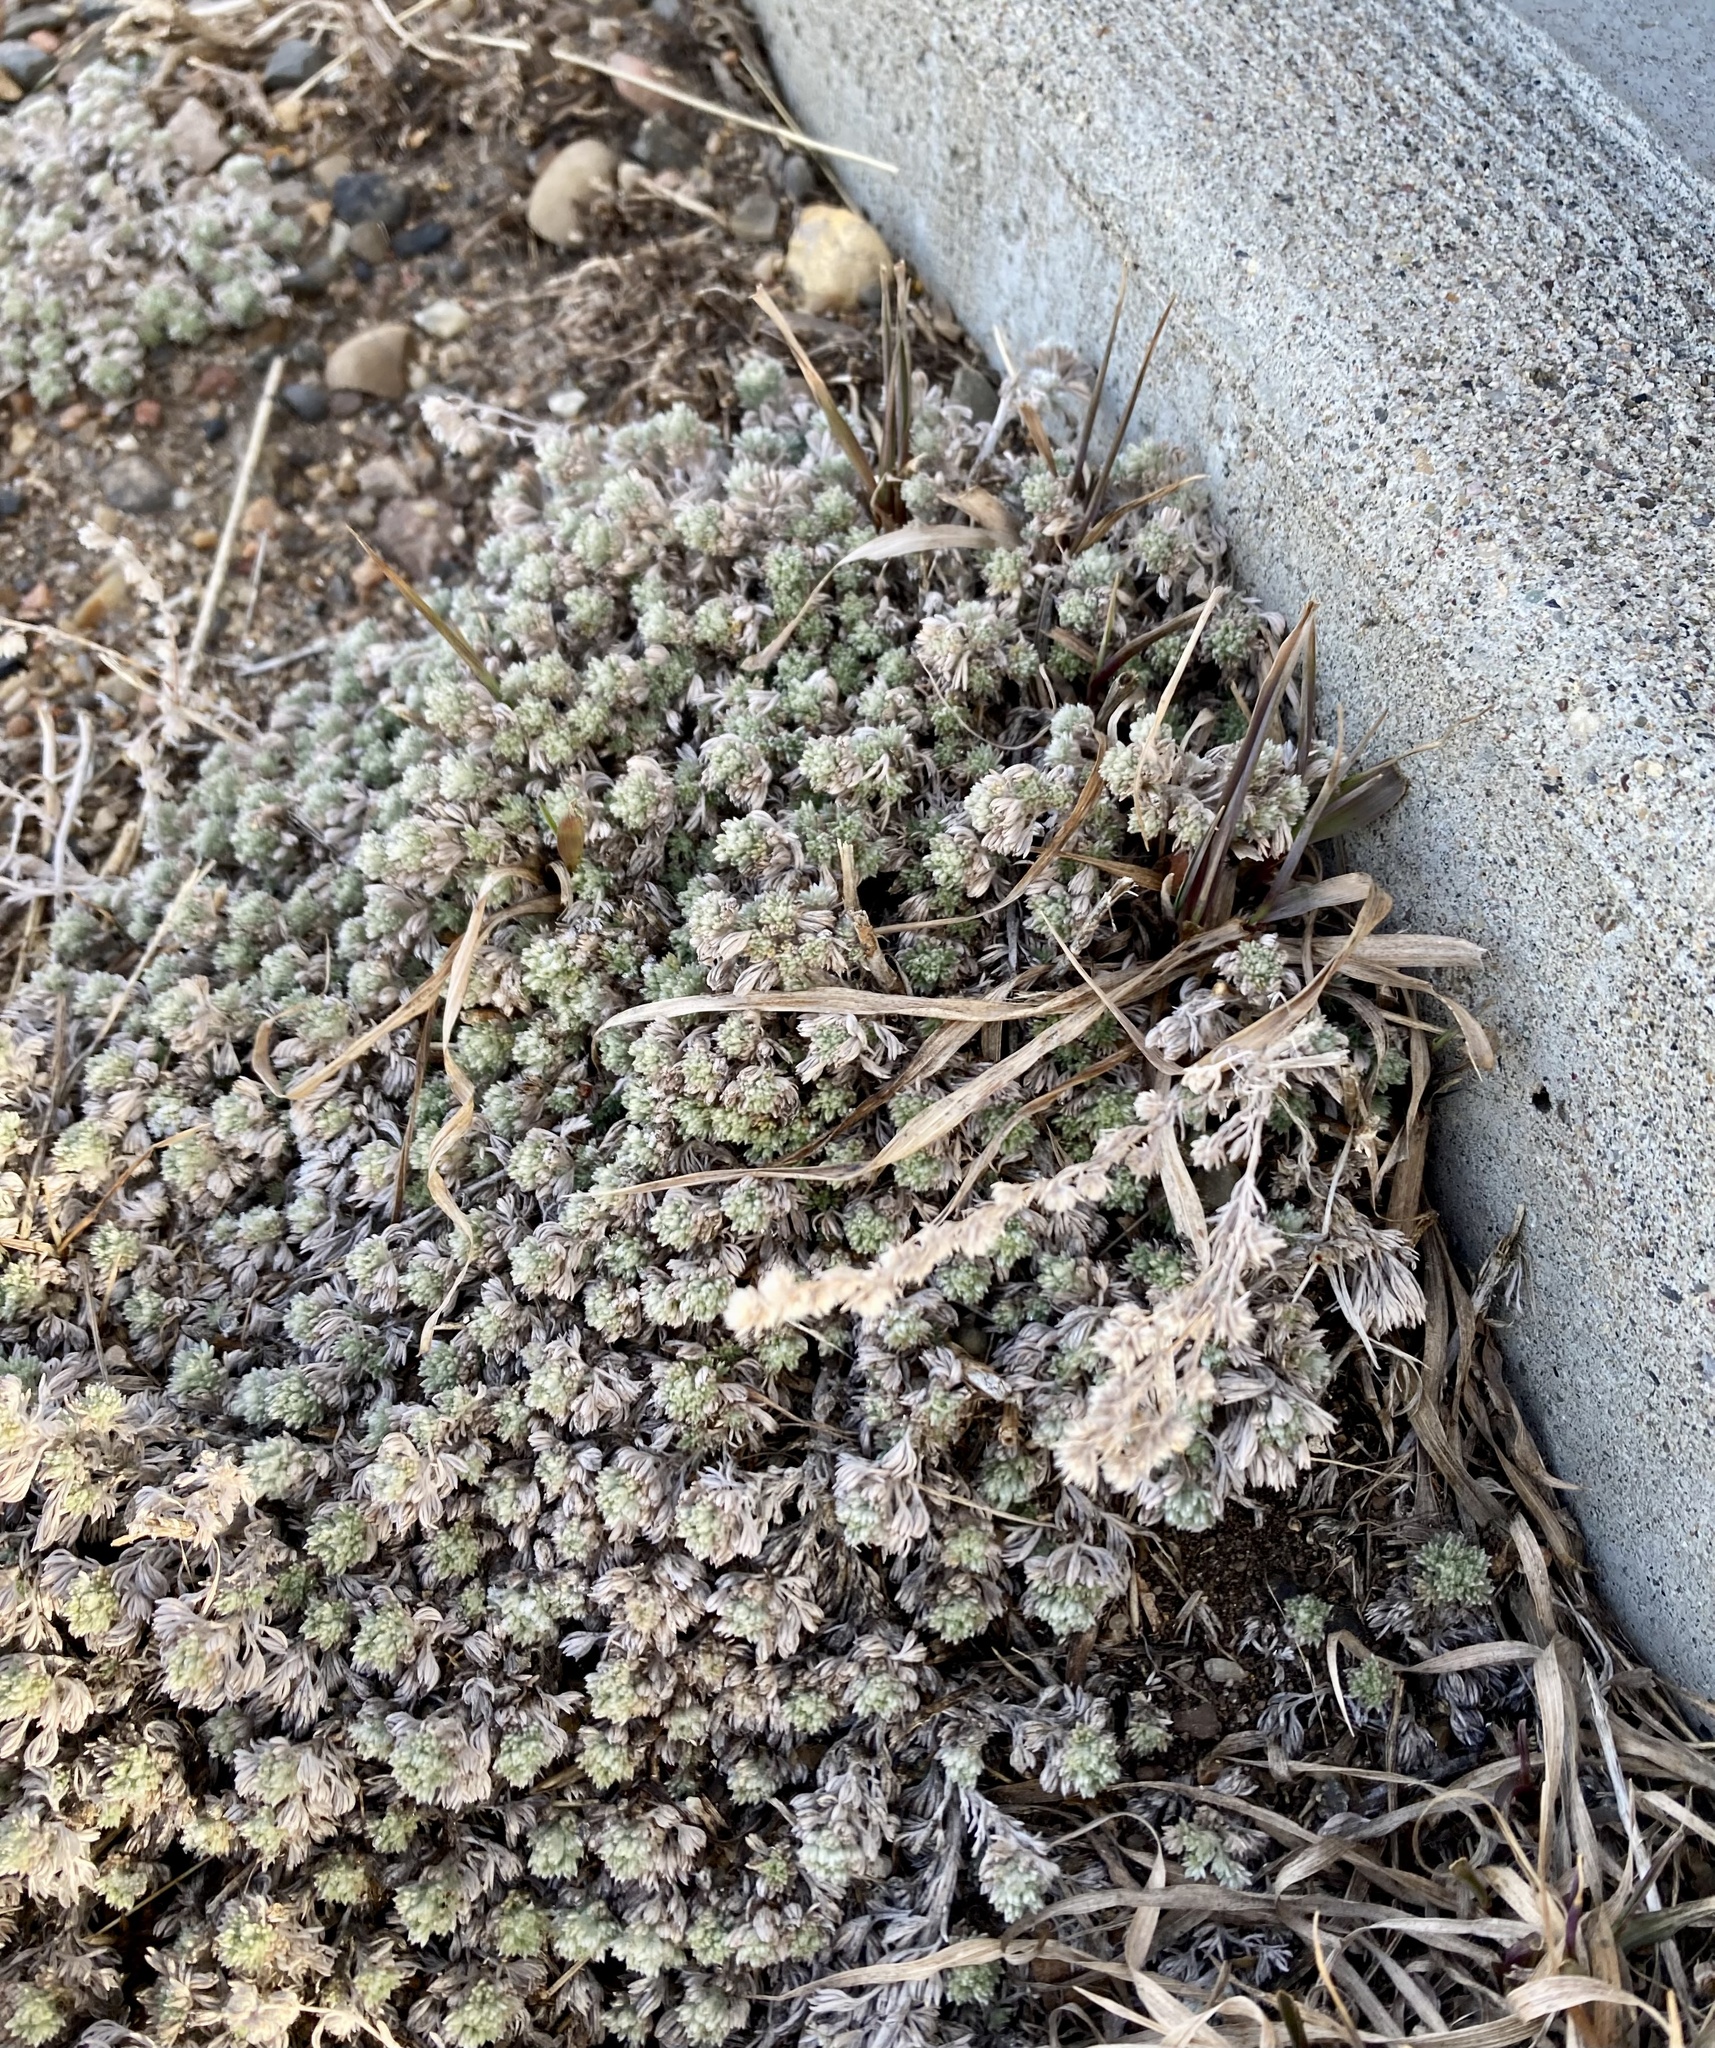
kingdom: Plantae
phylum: Tracheophyta
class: Magnoliopsida
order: Asterales
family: Asteraceae
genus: Artemisia
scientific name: Artemisia frigida
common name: Prairie sagewort
